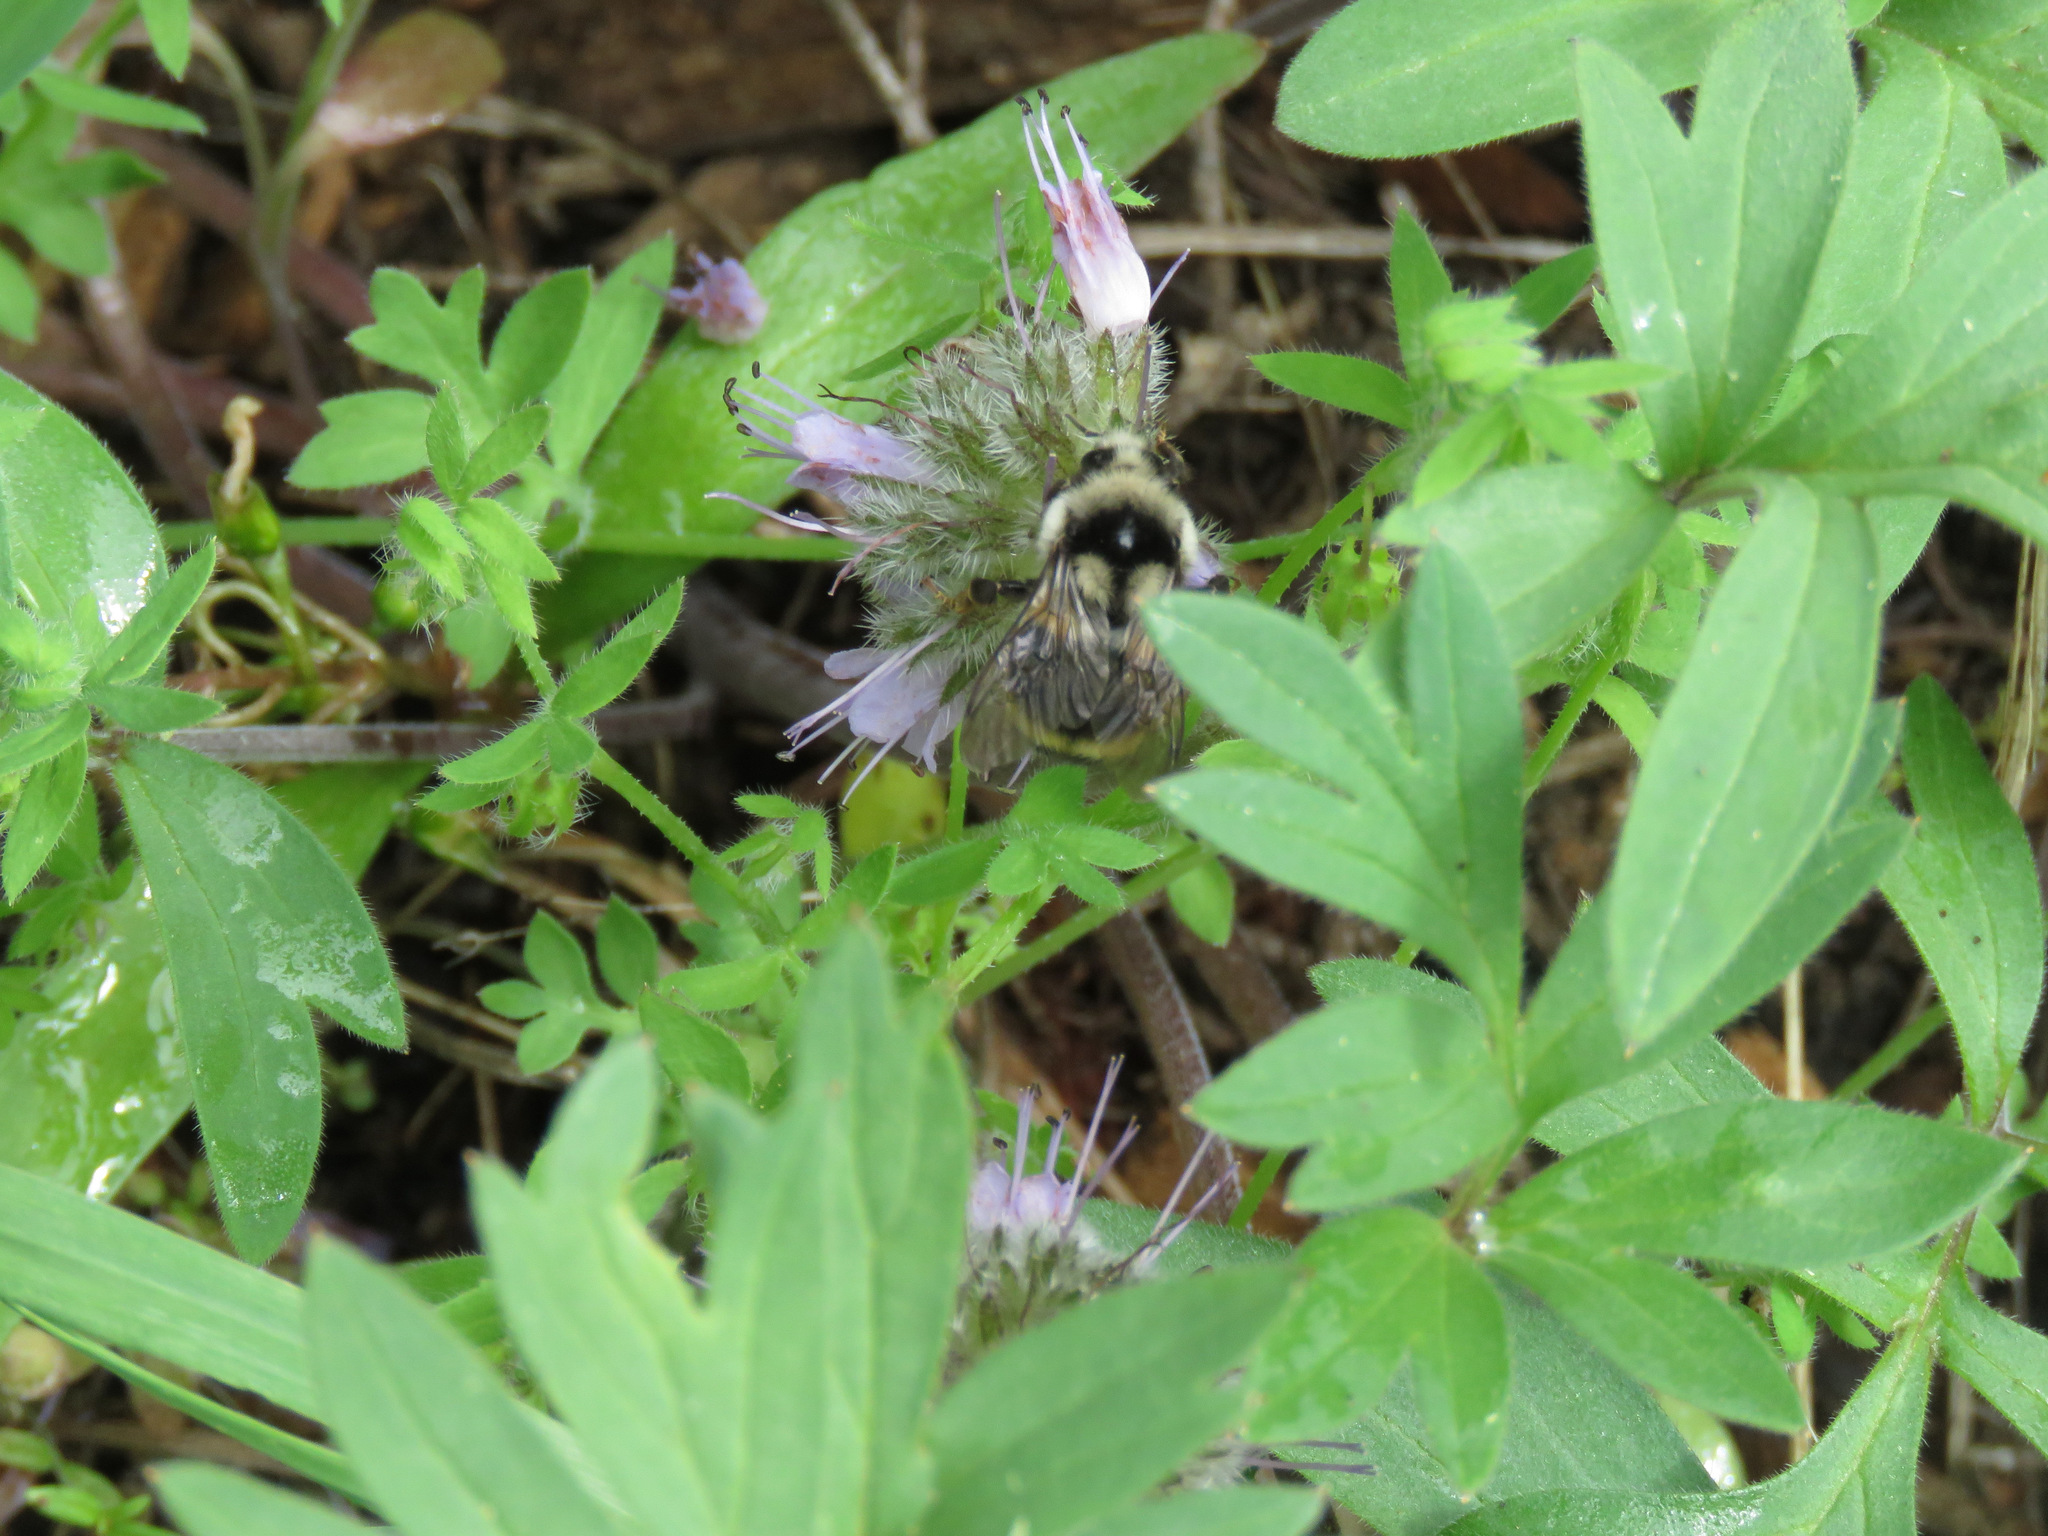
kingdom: Animalia
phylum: Arthropoda
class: Insecta
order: Hymenoptera
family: Apidae
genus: Bombus
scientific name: Bombus vancouverensis
